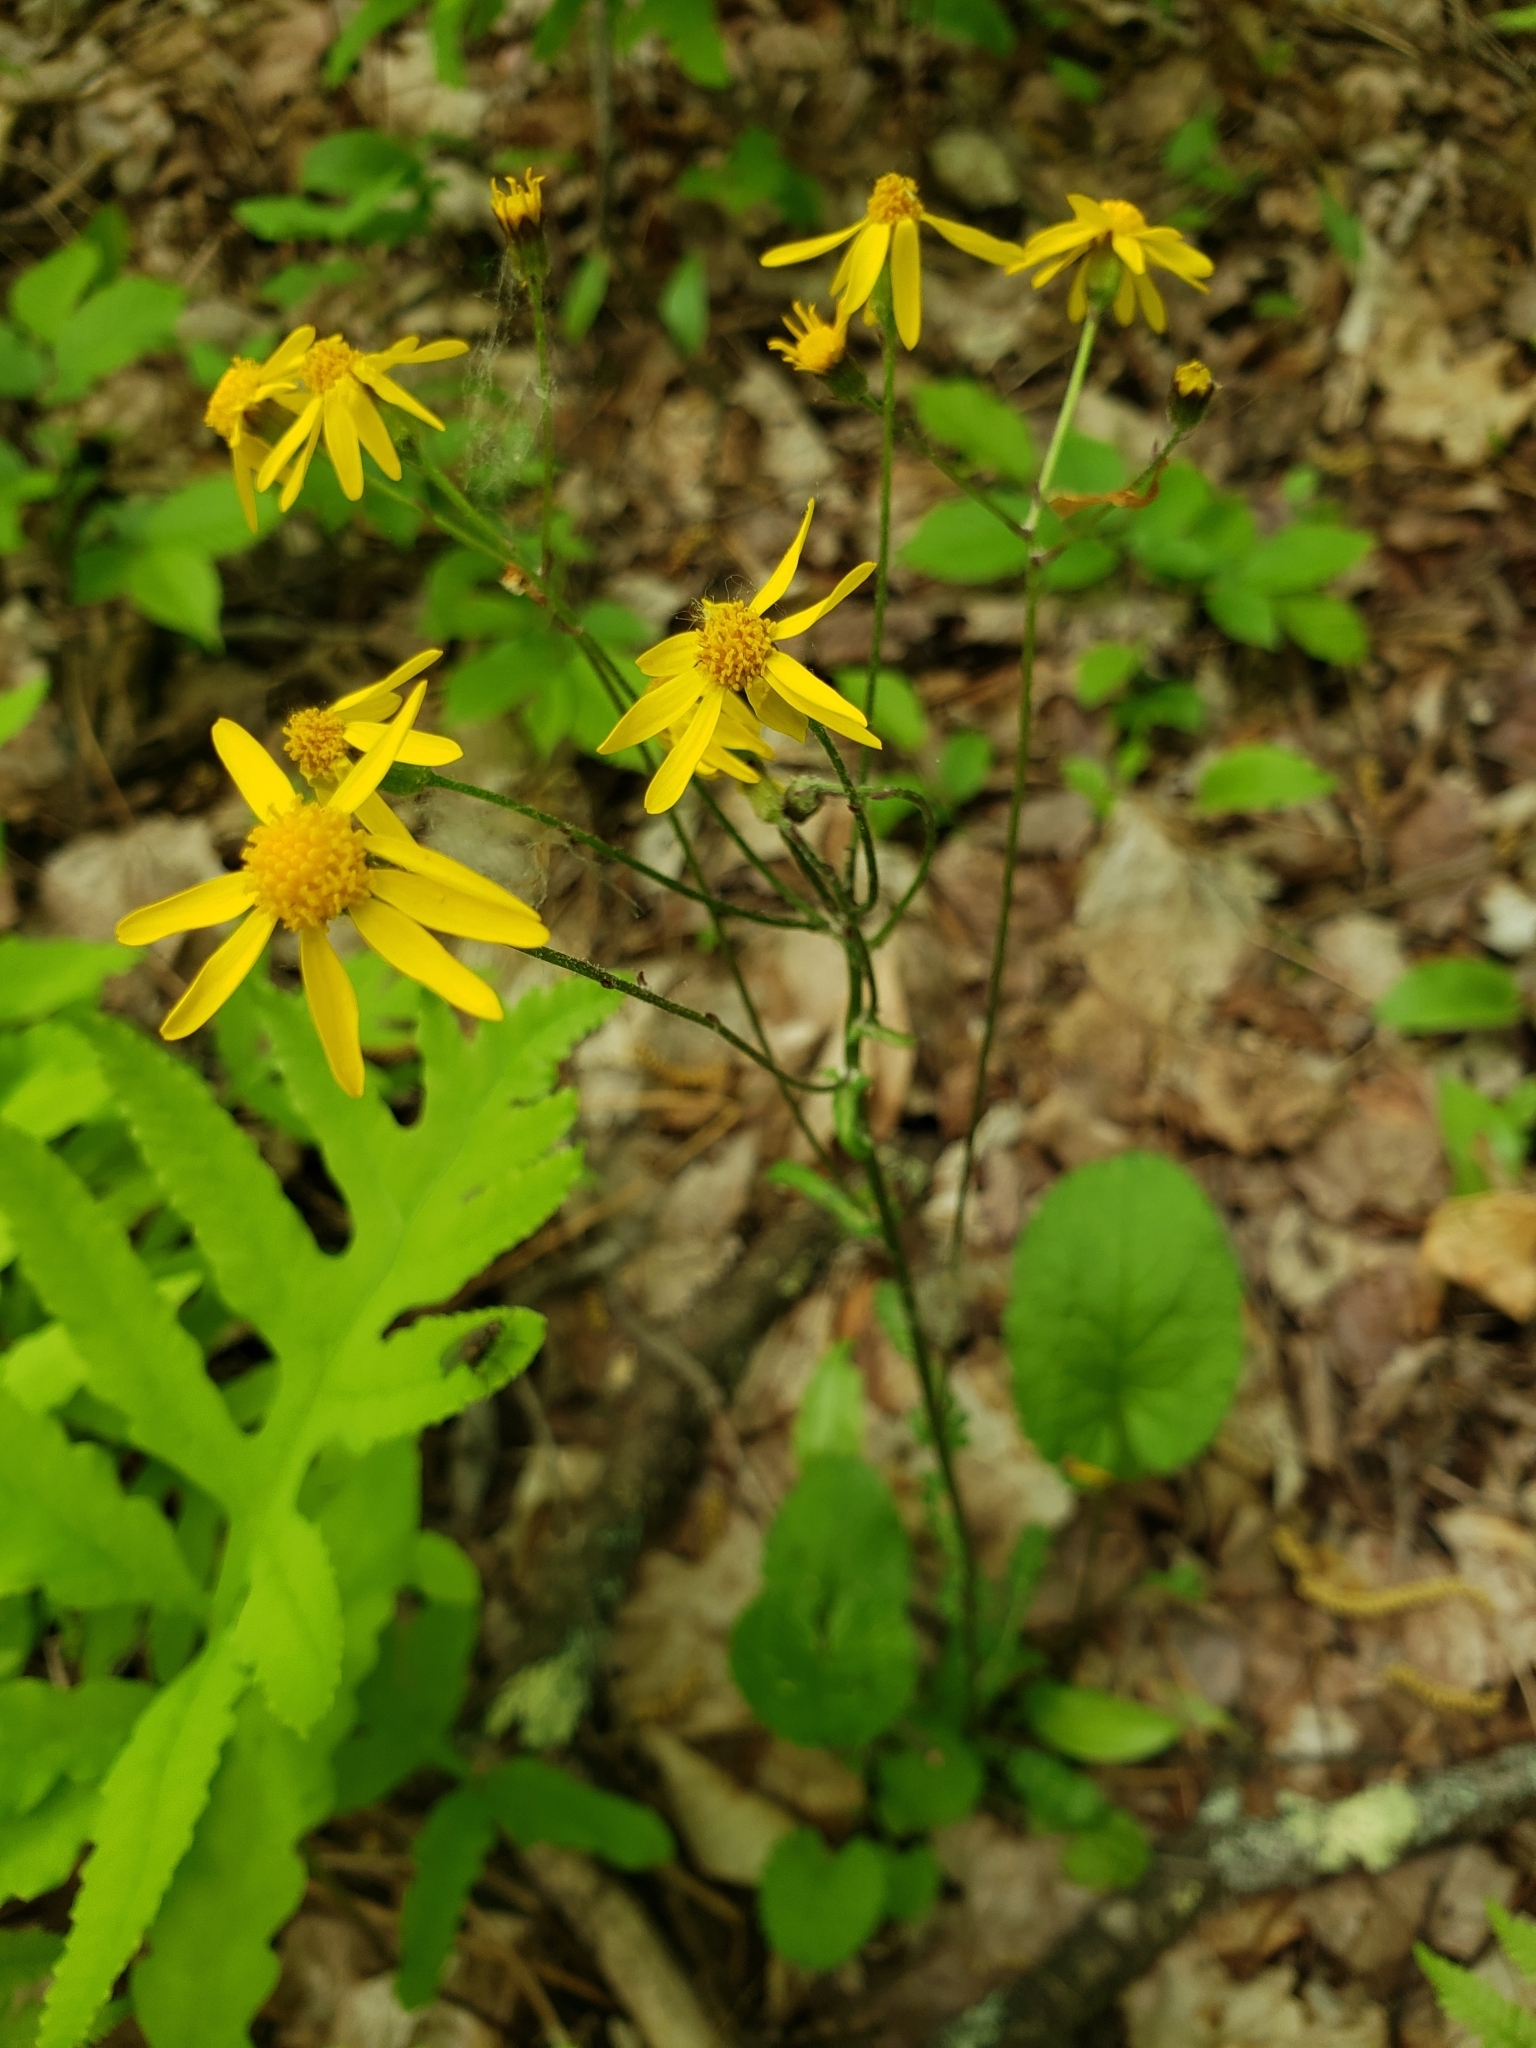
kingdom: Plantae
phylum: Tracheophyta
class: Magnoliopsida
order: Asterales
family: Asteraceae
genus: Packera
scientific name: Packera aurea
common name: Golden groundsel
